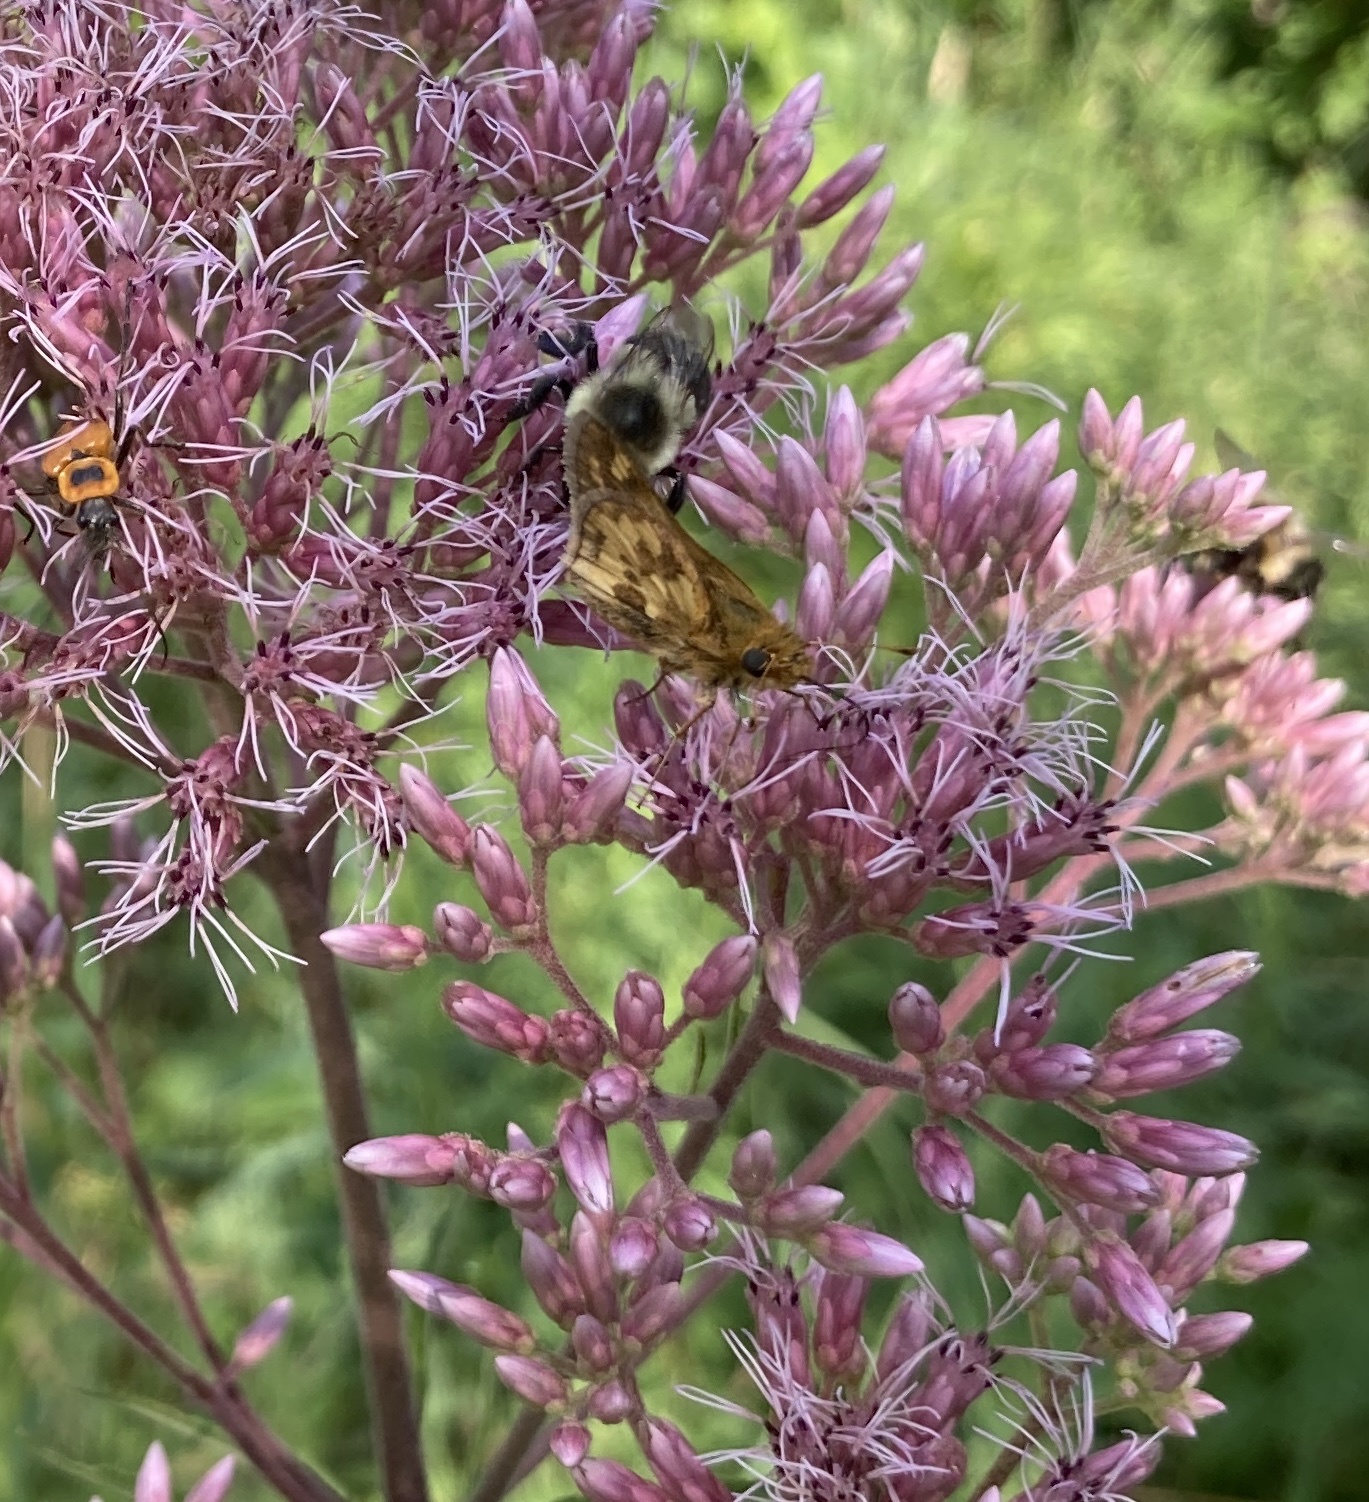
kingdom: Animalia
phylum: Arthropoda
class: Insecta
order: Lepidoptera
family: Hesperiidae
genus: Polites
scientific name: Polites coras
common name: Peck's skipper
